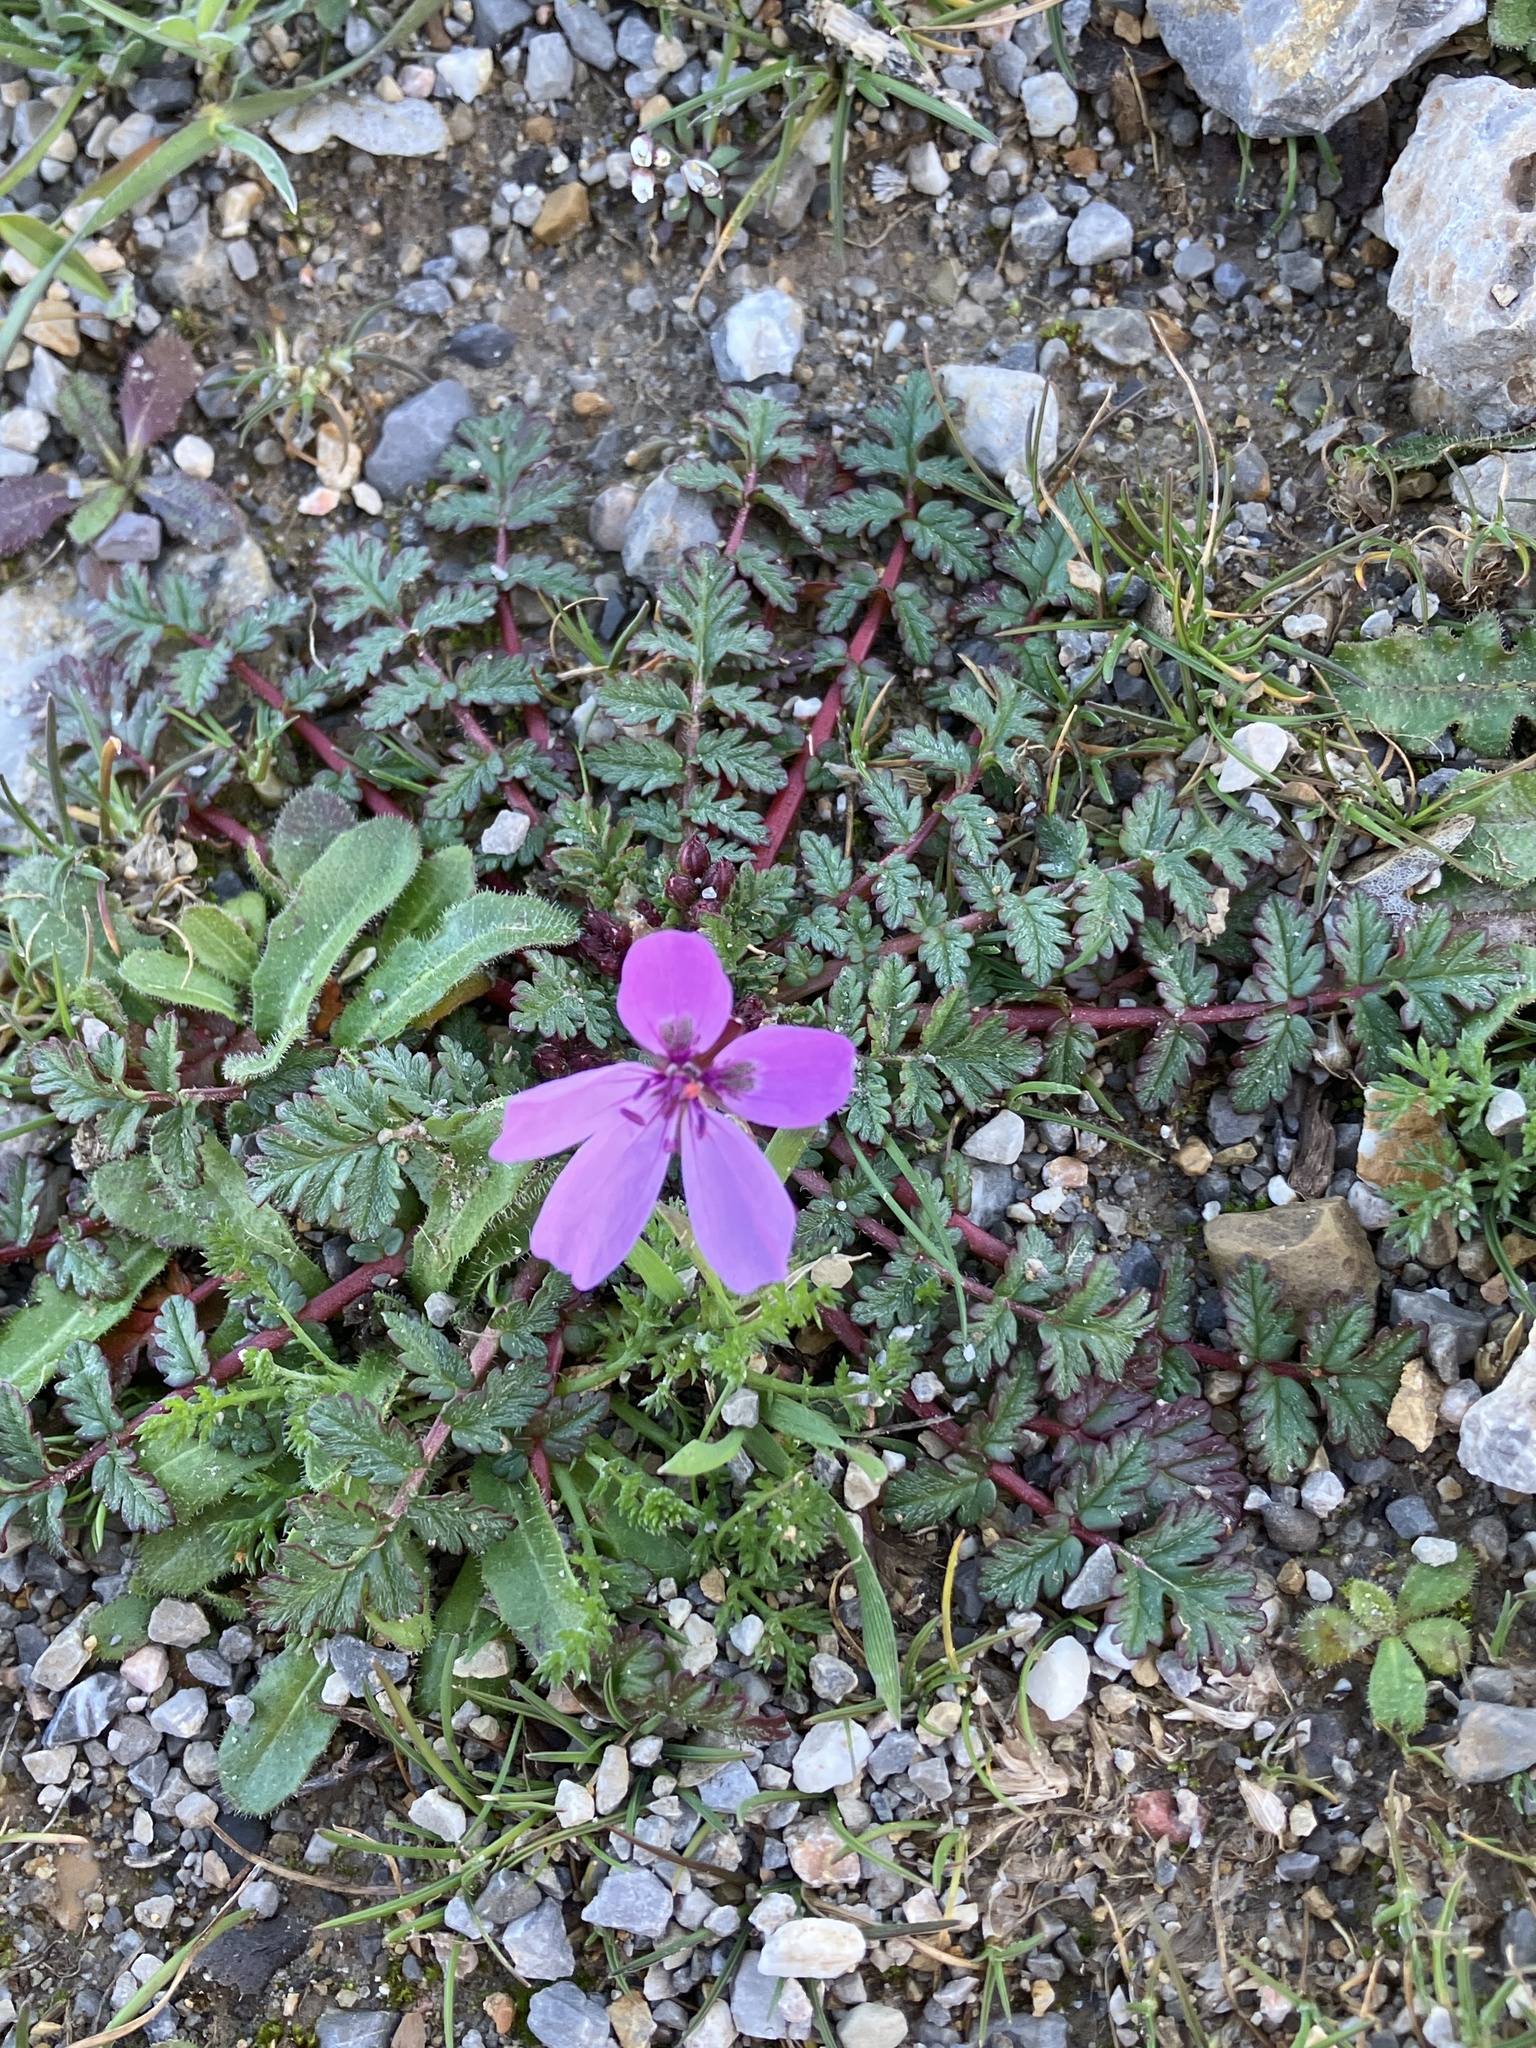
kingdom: Plantae
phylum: Tracheophyta
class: Magnoliopsida
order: Geraniales
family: Geraniaceae
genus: Erodium
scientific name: Erodium cicutarium
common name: Common stork's-bill
